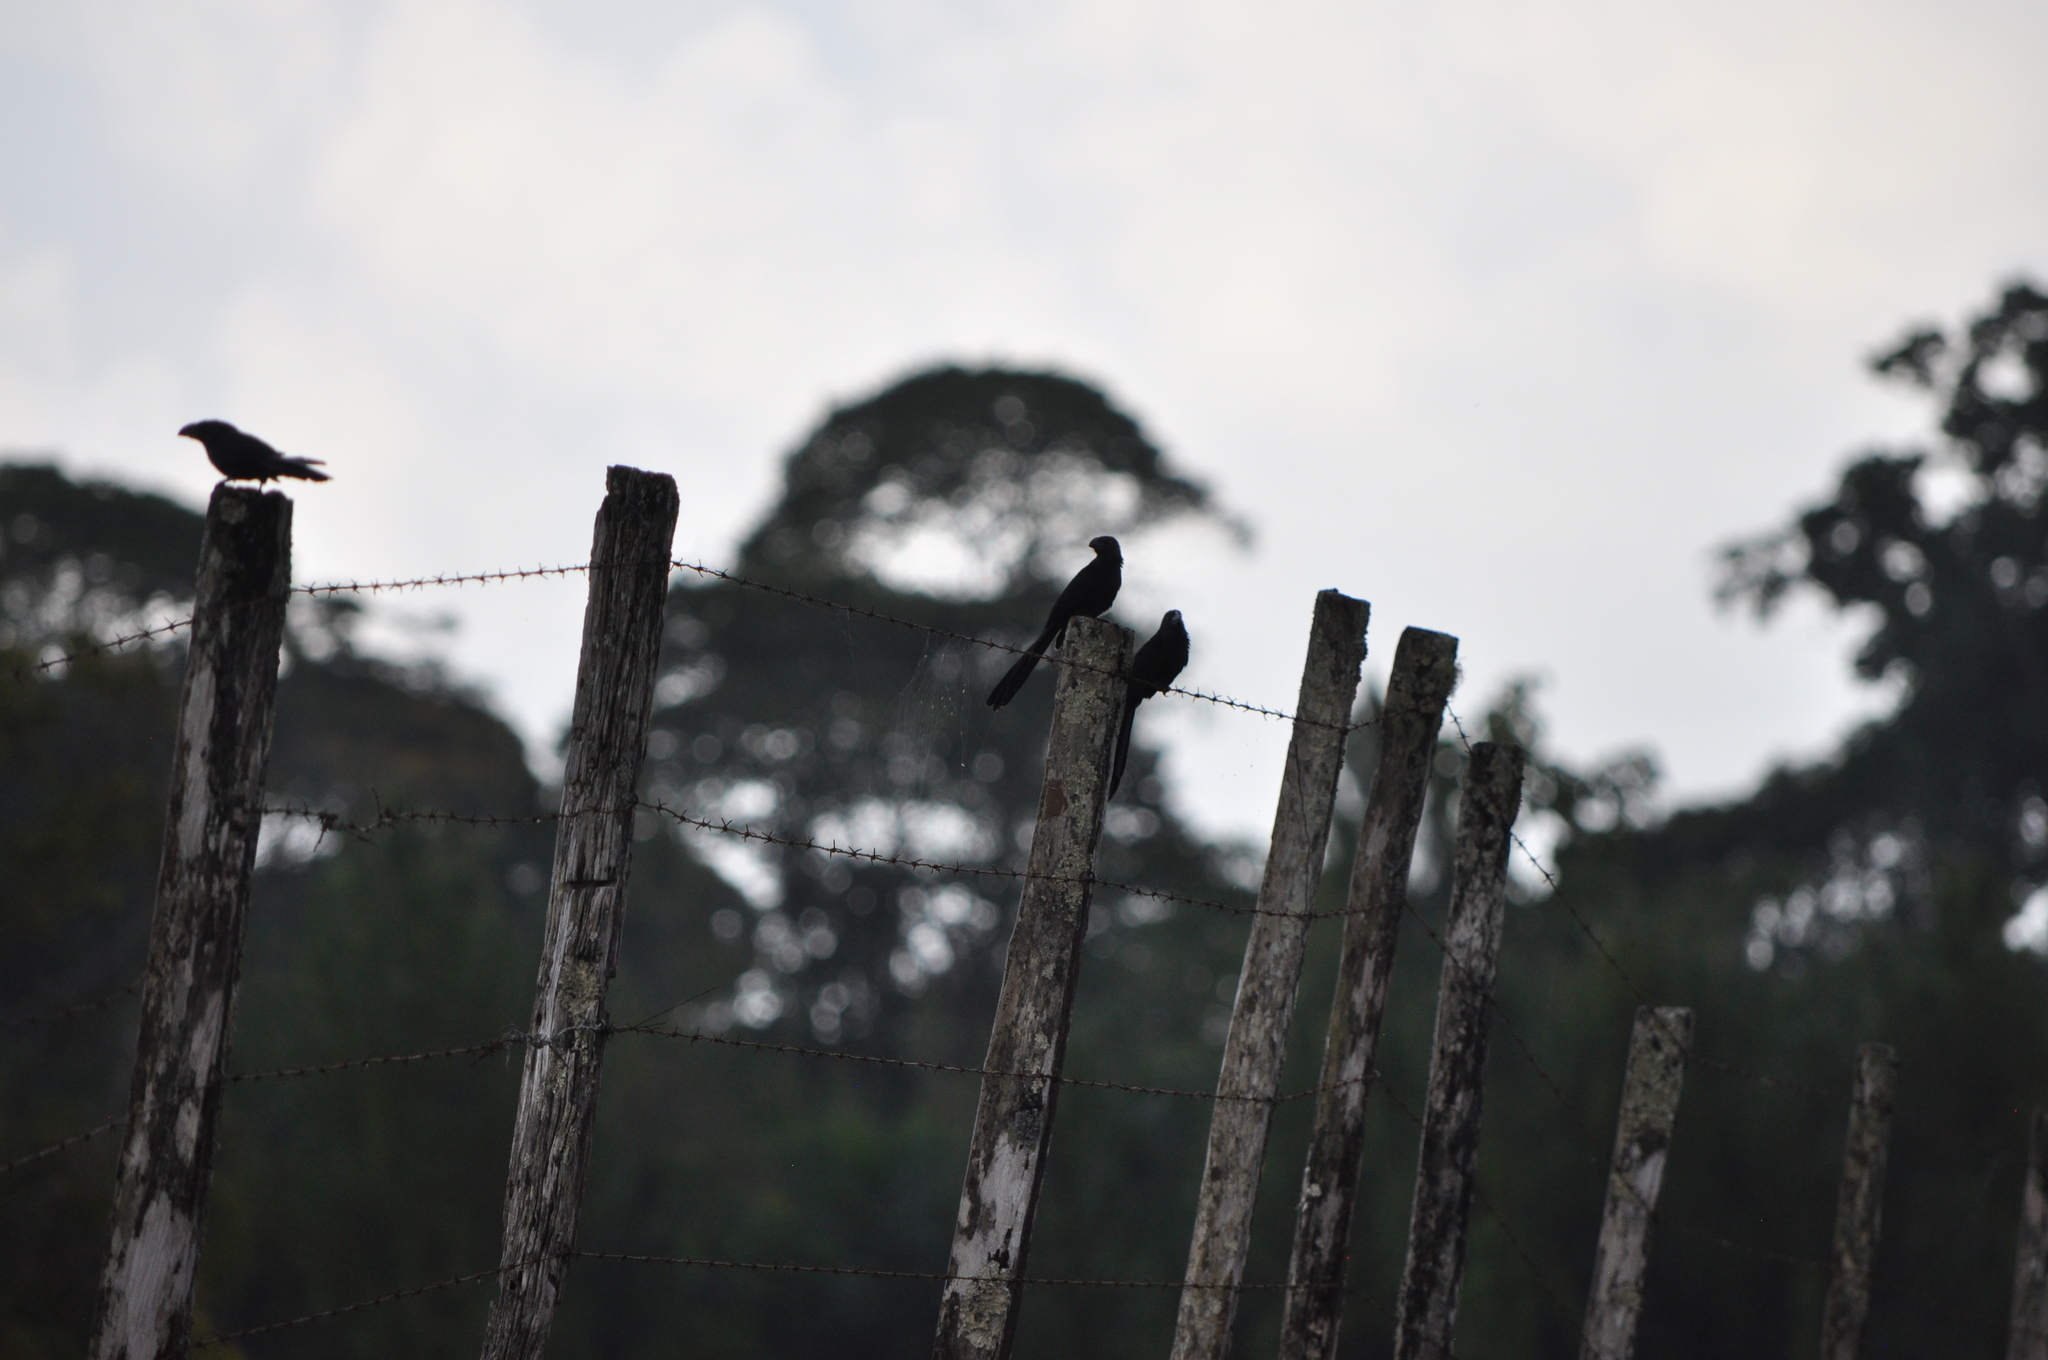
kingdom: Animalia
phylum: Chordata
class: Aves
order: Cuculiformes
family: Cuculidae
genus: Crotophaga
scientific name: Crotophaga sulcirostris
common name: Groove-billed ani
